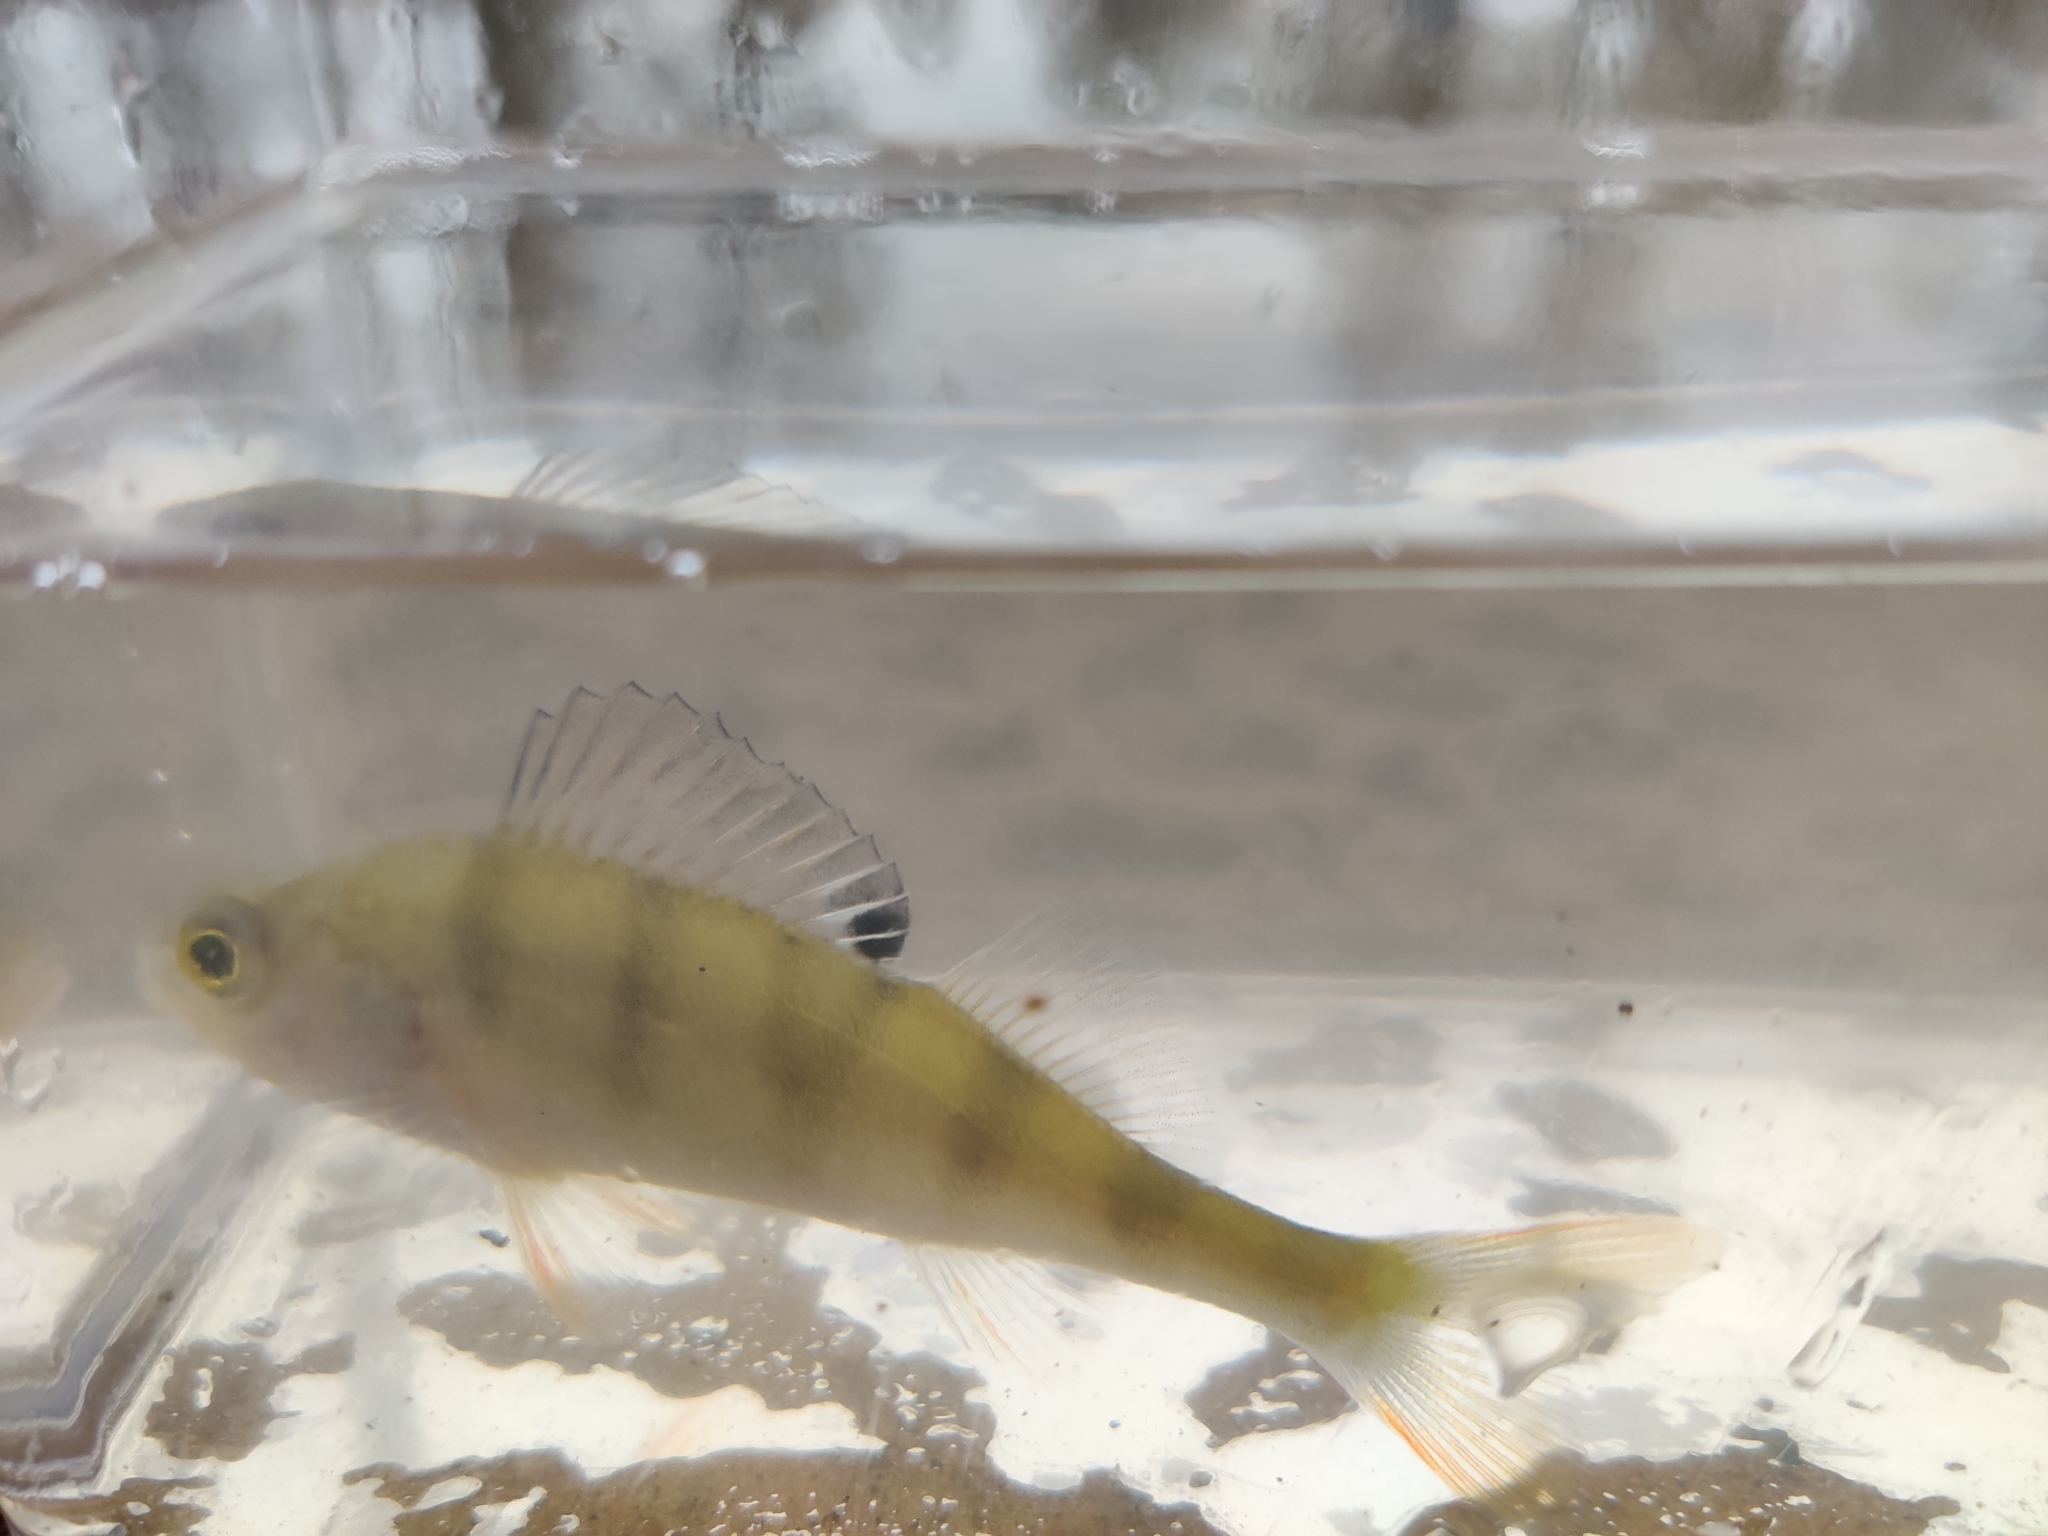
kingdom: Animalia
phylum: Chordata
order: Perciformes
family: Percidae
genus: Perca
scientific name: Perca fluviatilis
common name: Perch
